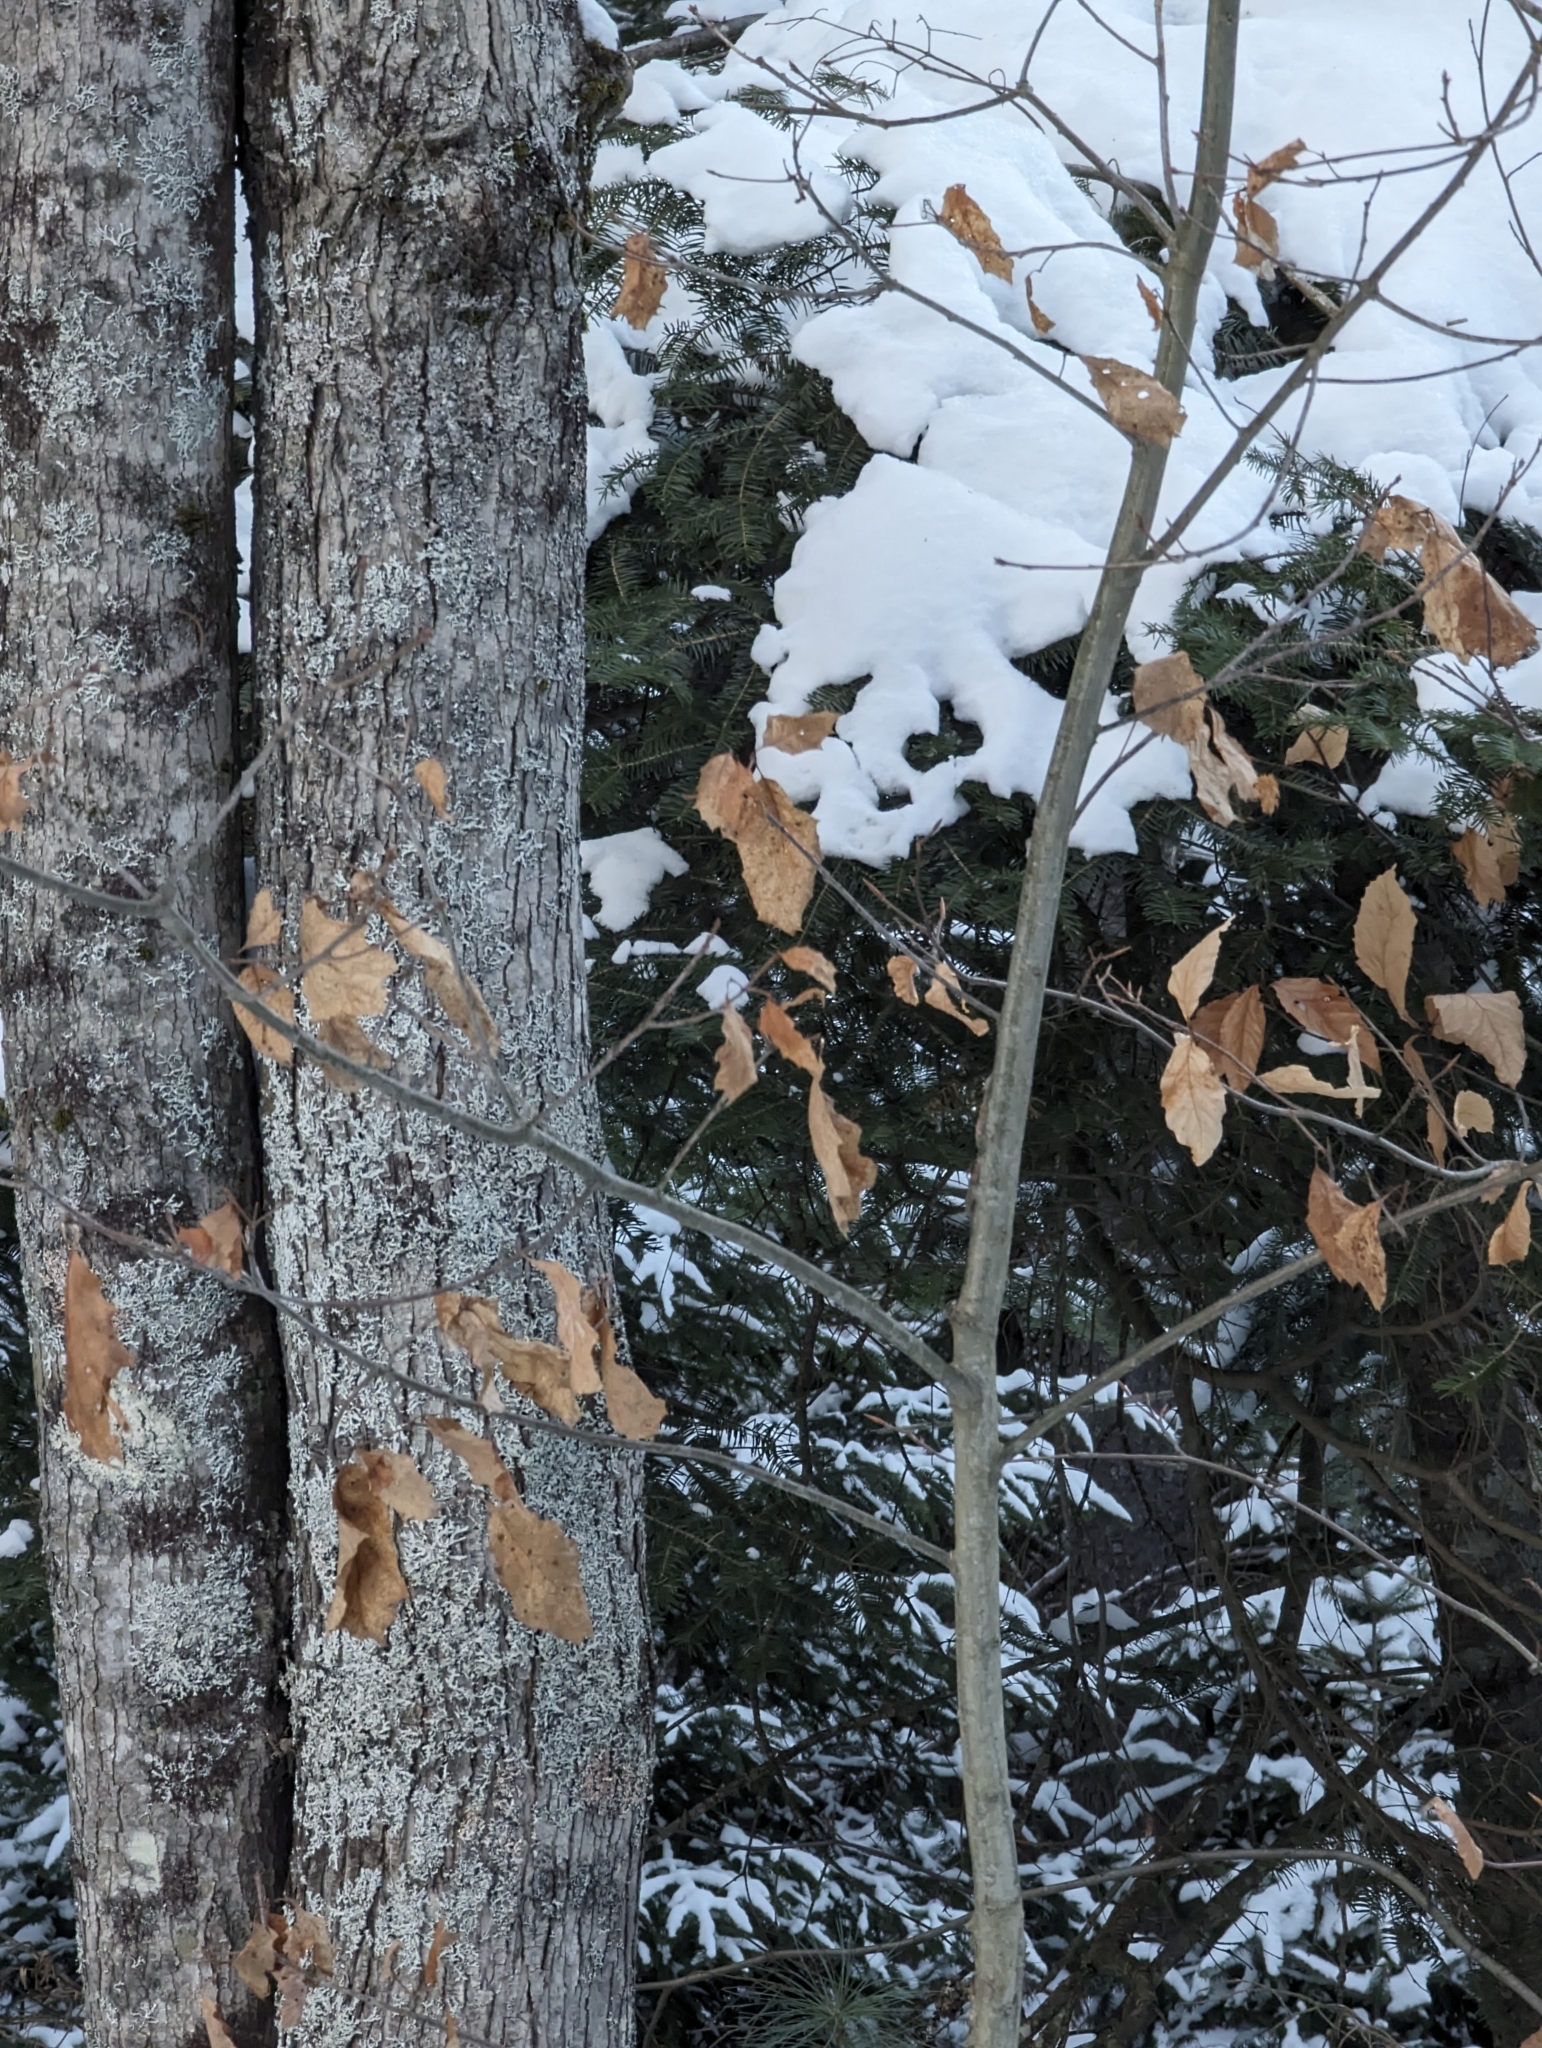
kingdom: Plantae
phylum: Tracheophyta
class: Magnoliopsida
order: Fagales
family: Fagaceae
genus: Fagus
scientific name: Fagus grandifolia
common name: American beech
